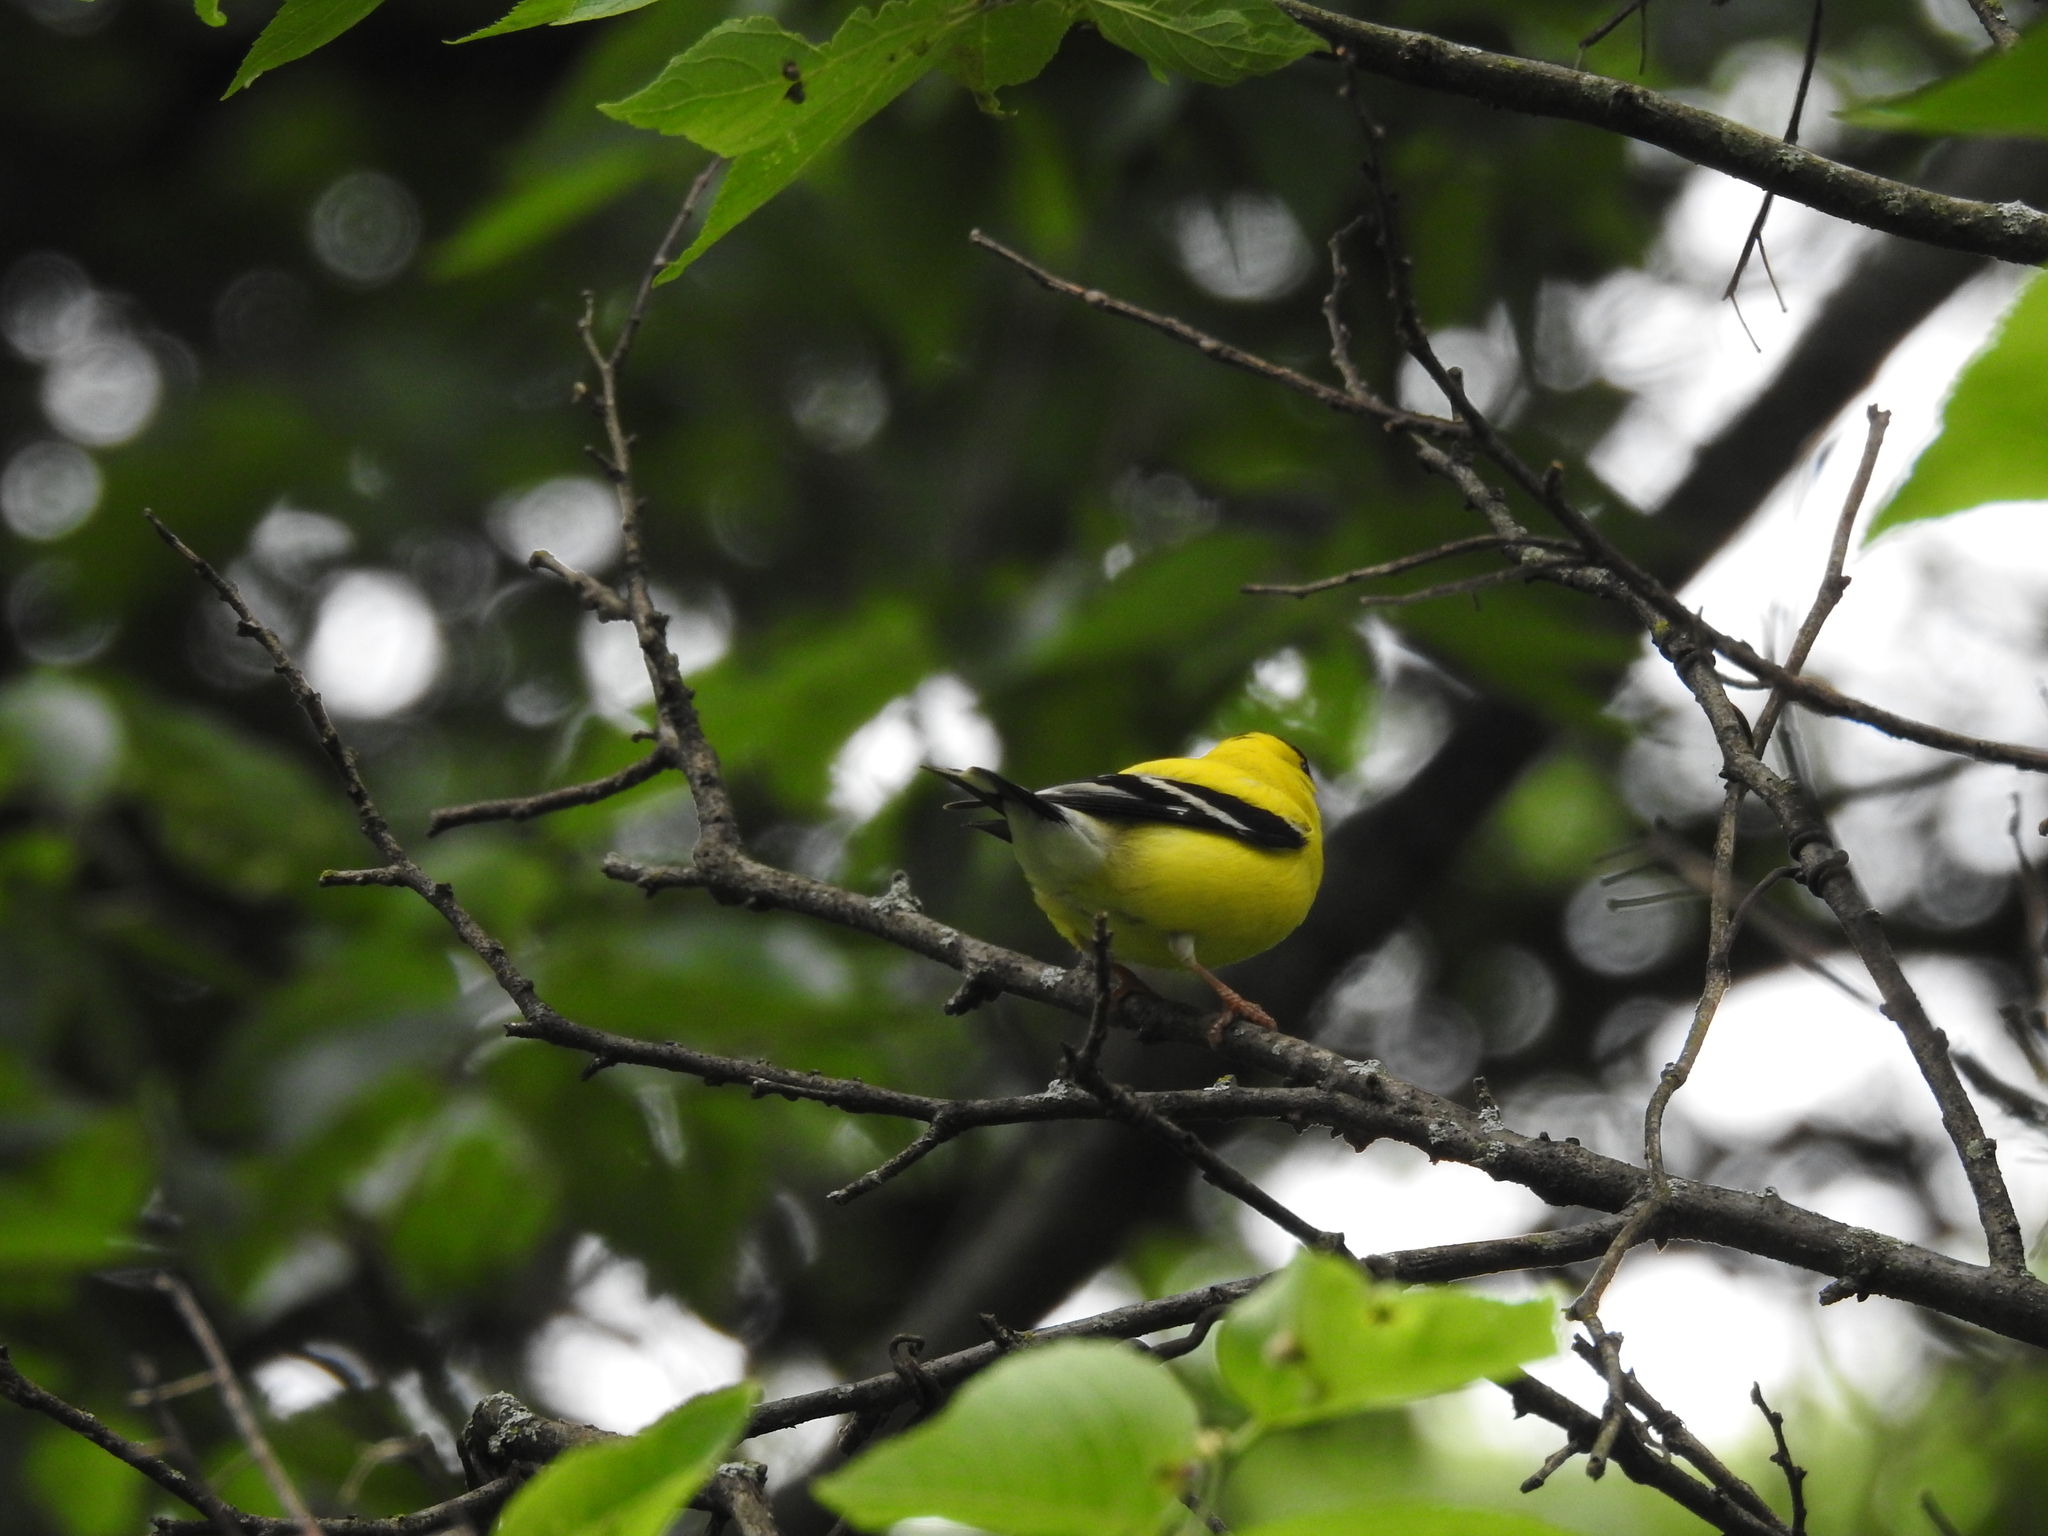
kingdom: Animalia
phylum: Chordata
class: Aves
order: Passeriformes
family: Fringillidae
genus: Spinus
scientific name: Spinus tristis
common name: American goldfinch
